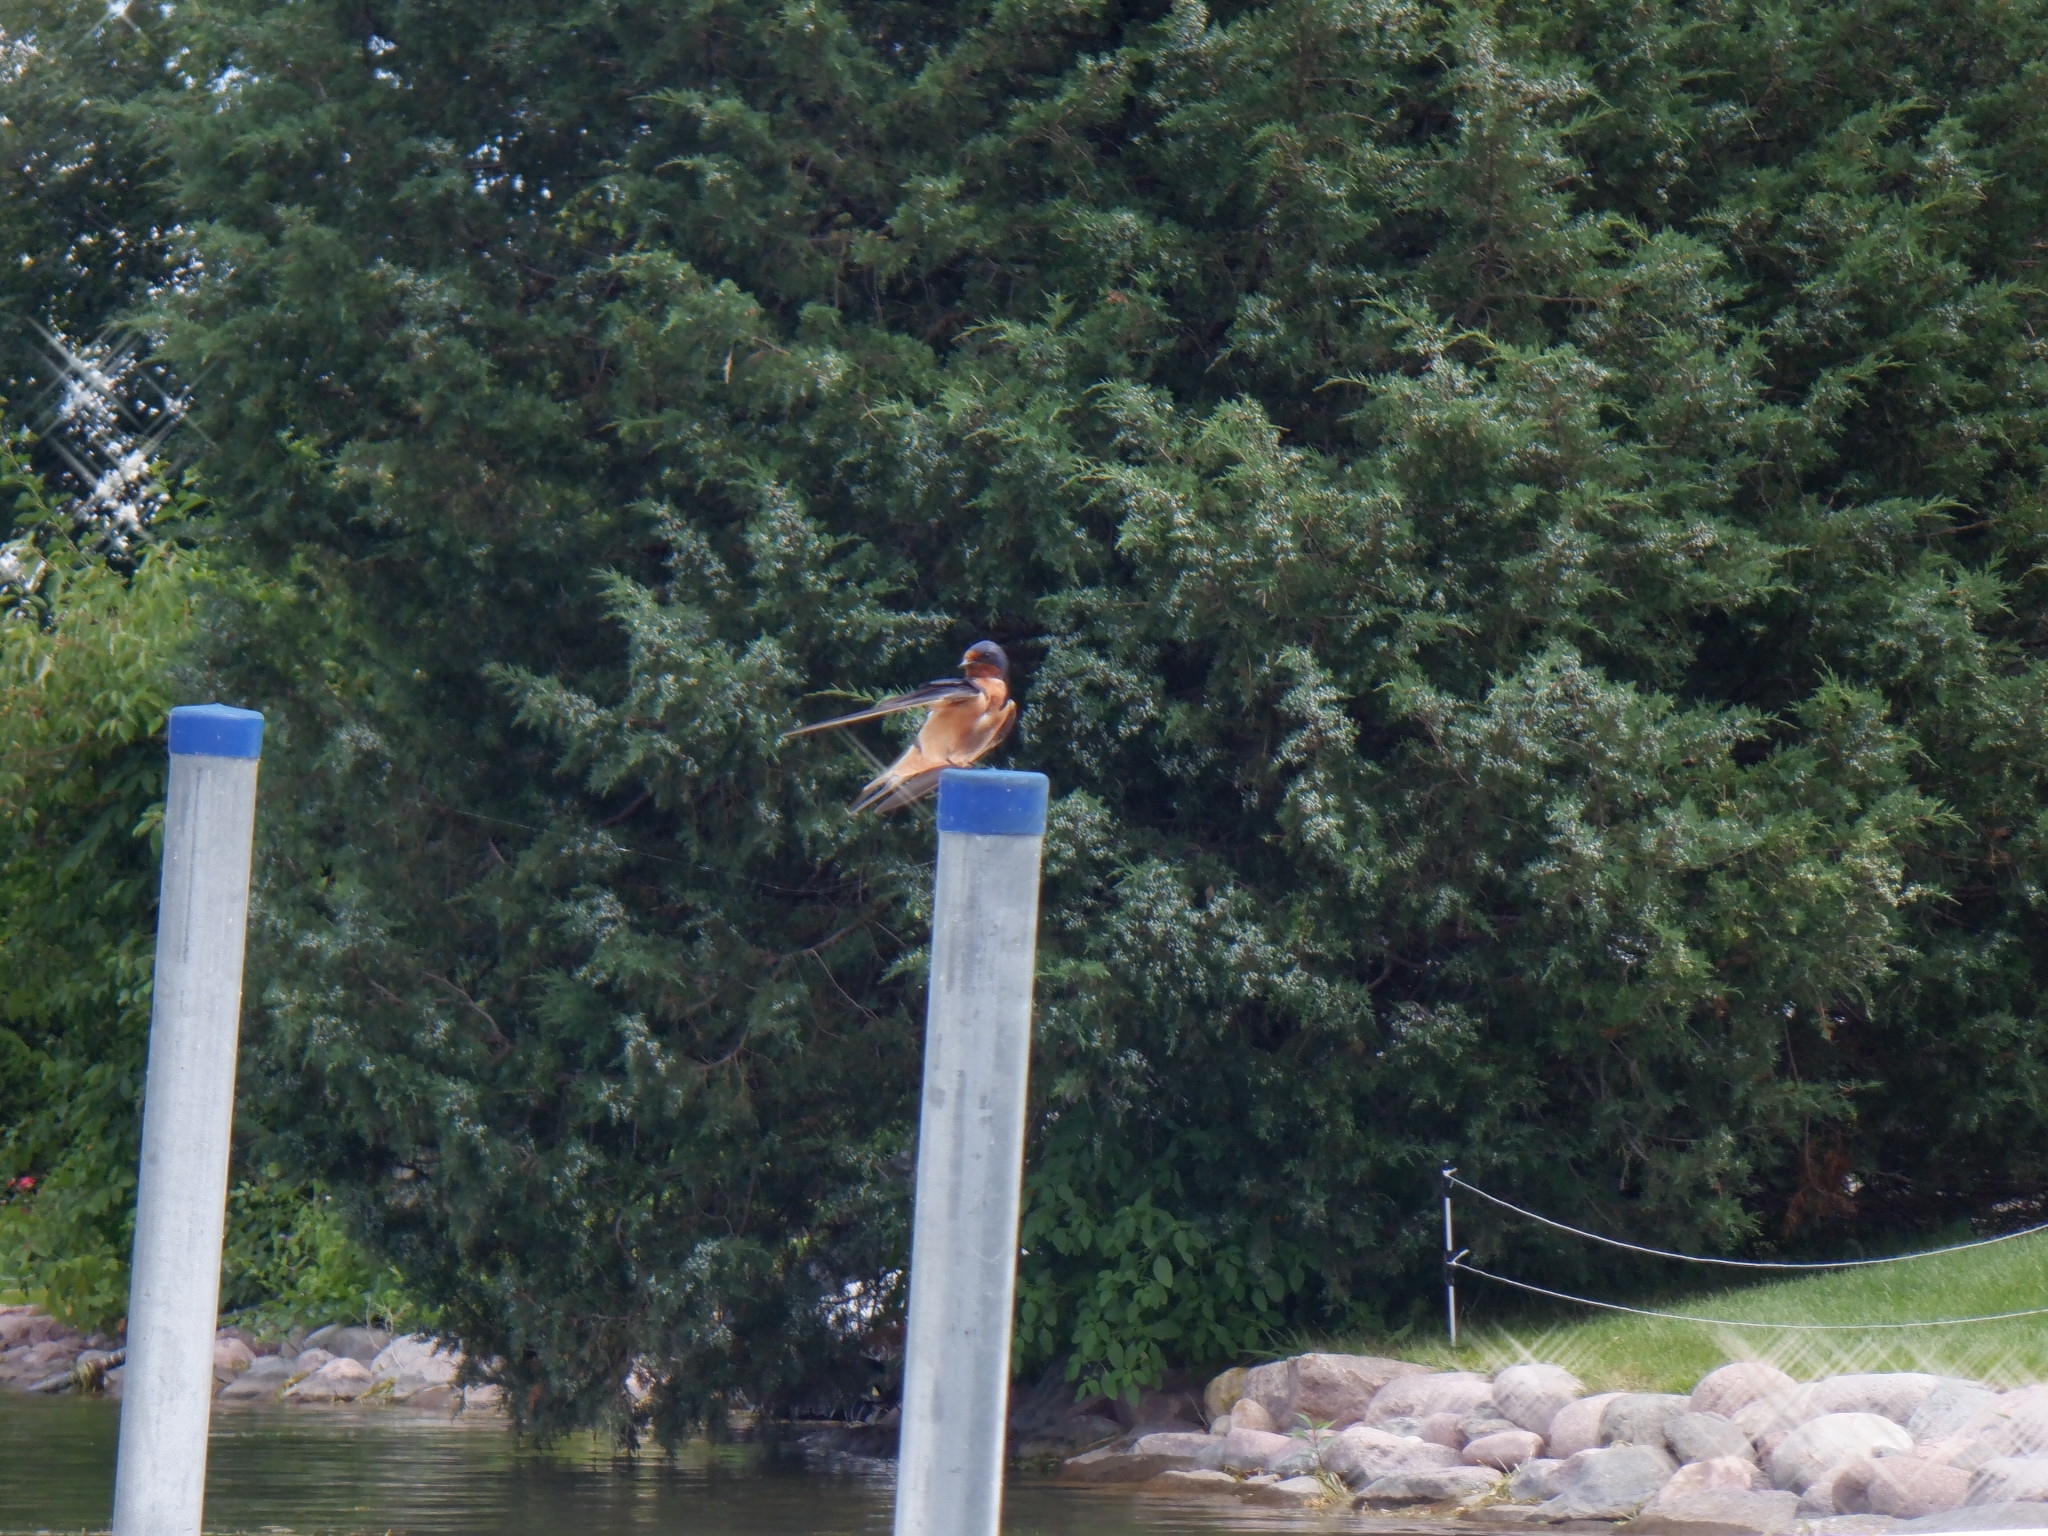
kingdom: Animalia
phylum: Chordata
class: Aves
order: Passeriformes
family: Hirundinidae
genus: Hirundo
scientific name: Hirundo rustica
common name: Barn swallow
